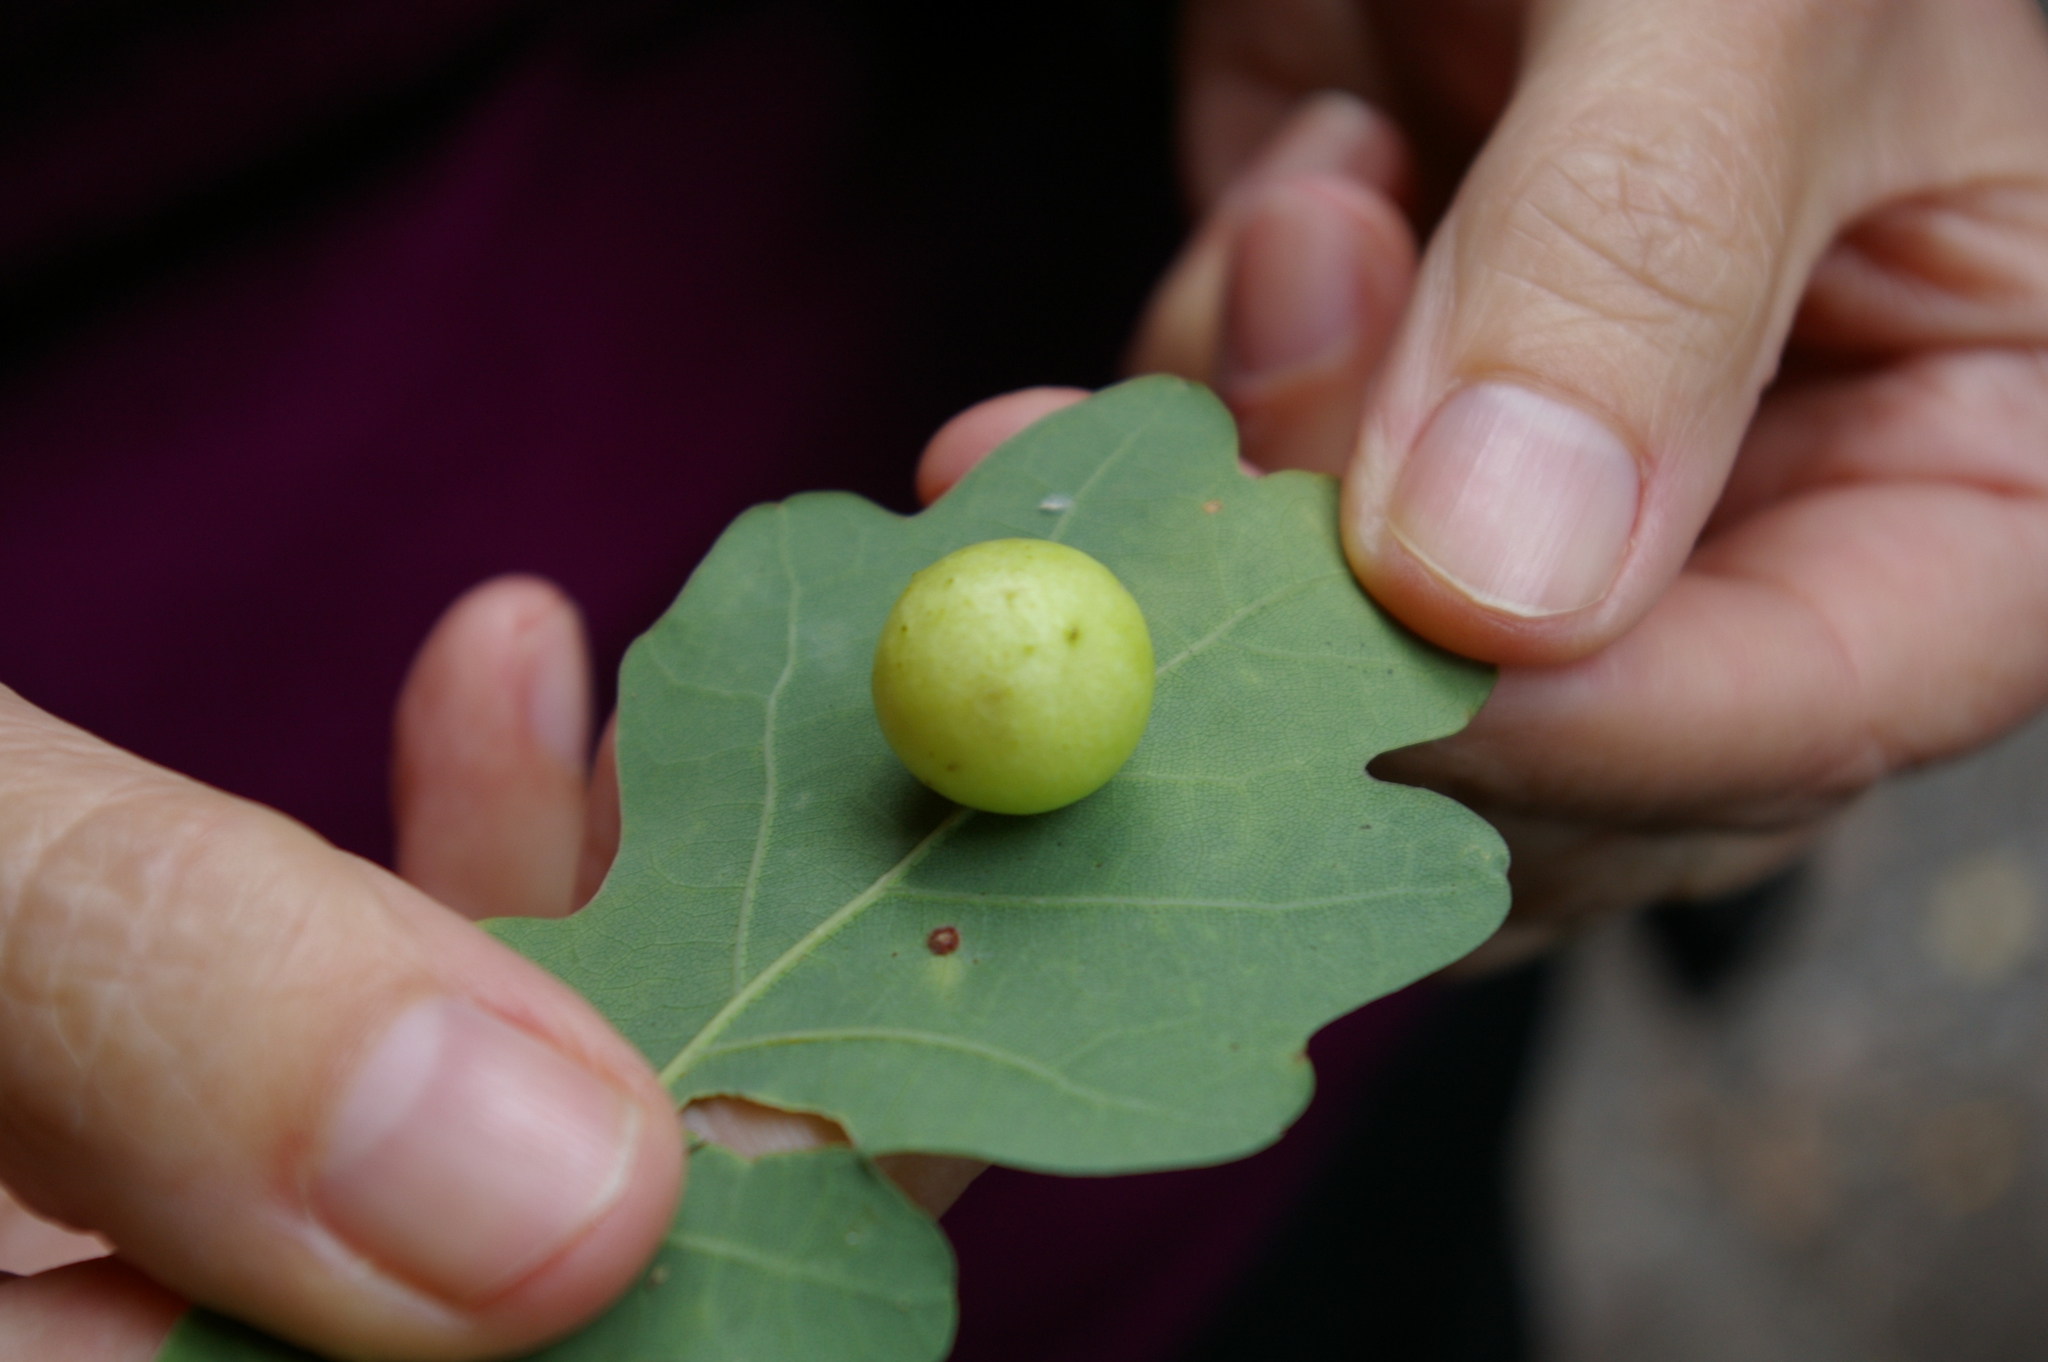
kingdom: Animalia
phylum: Arthropoda
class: Insecta
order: Hymenoptera
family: Cynipidae
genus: Cynips
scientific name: Cynips quercusfolii
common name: Cherry gall
